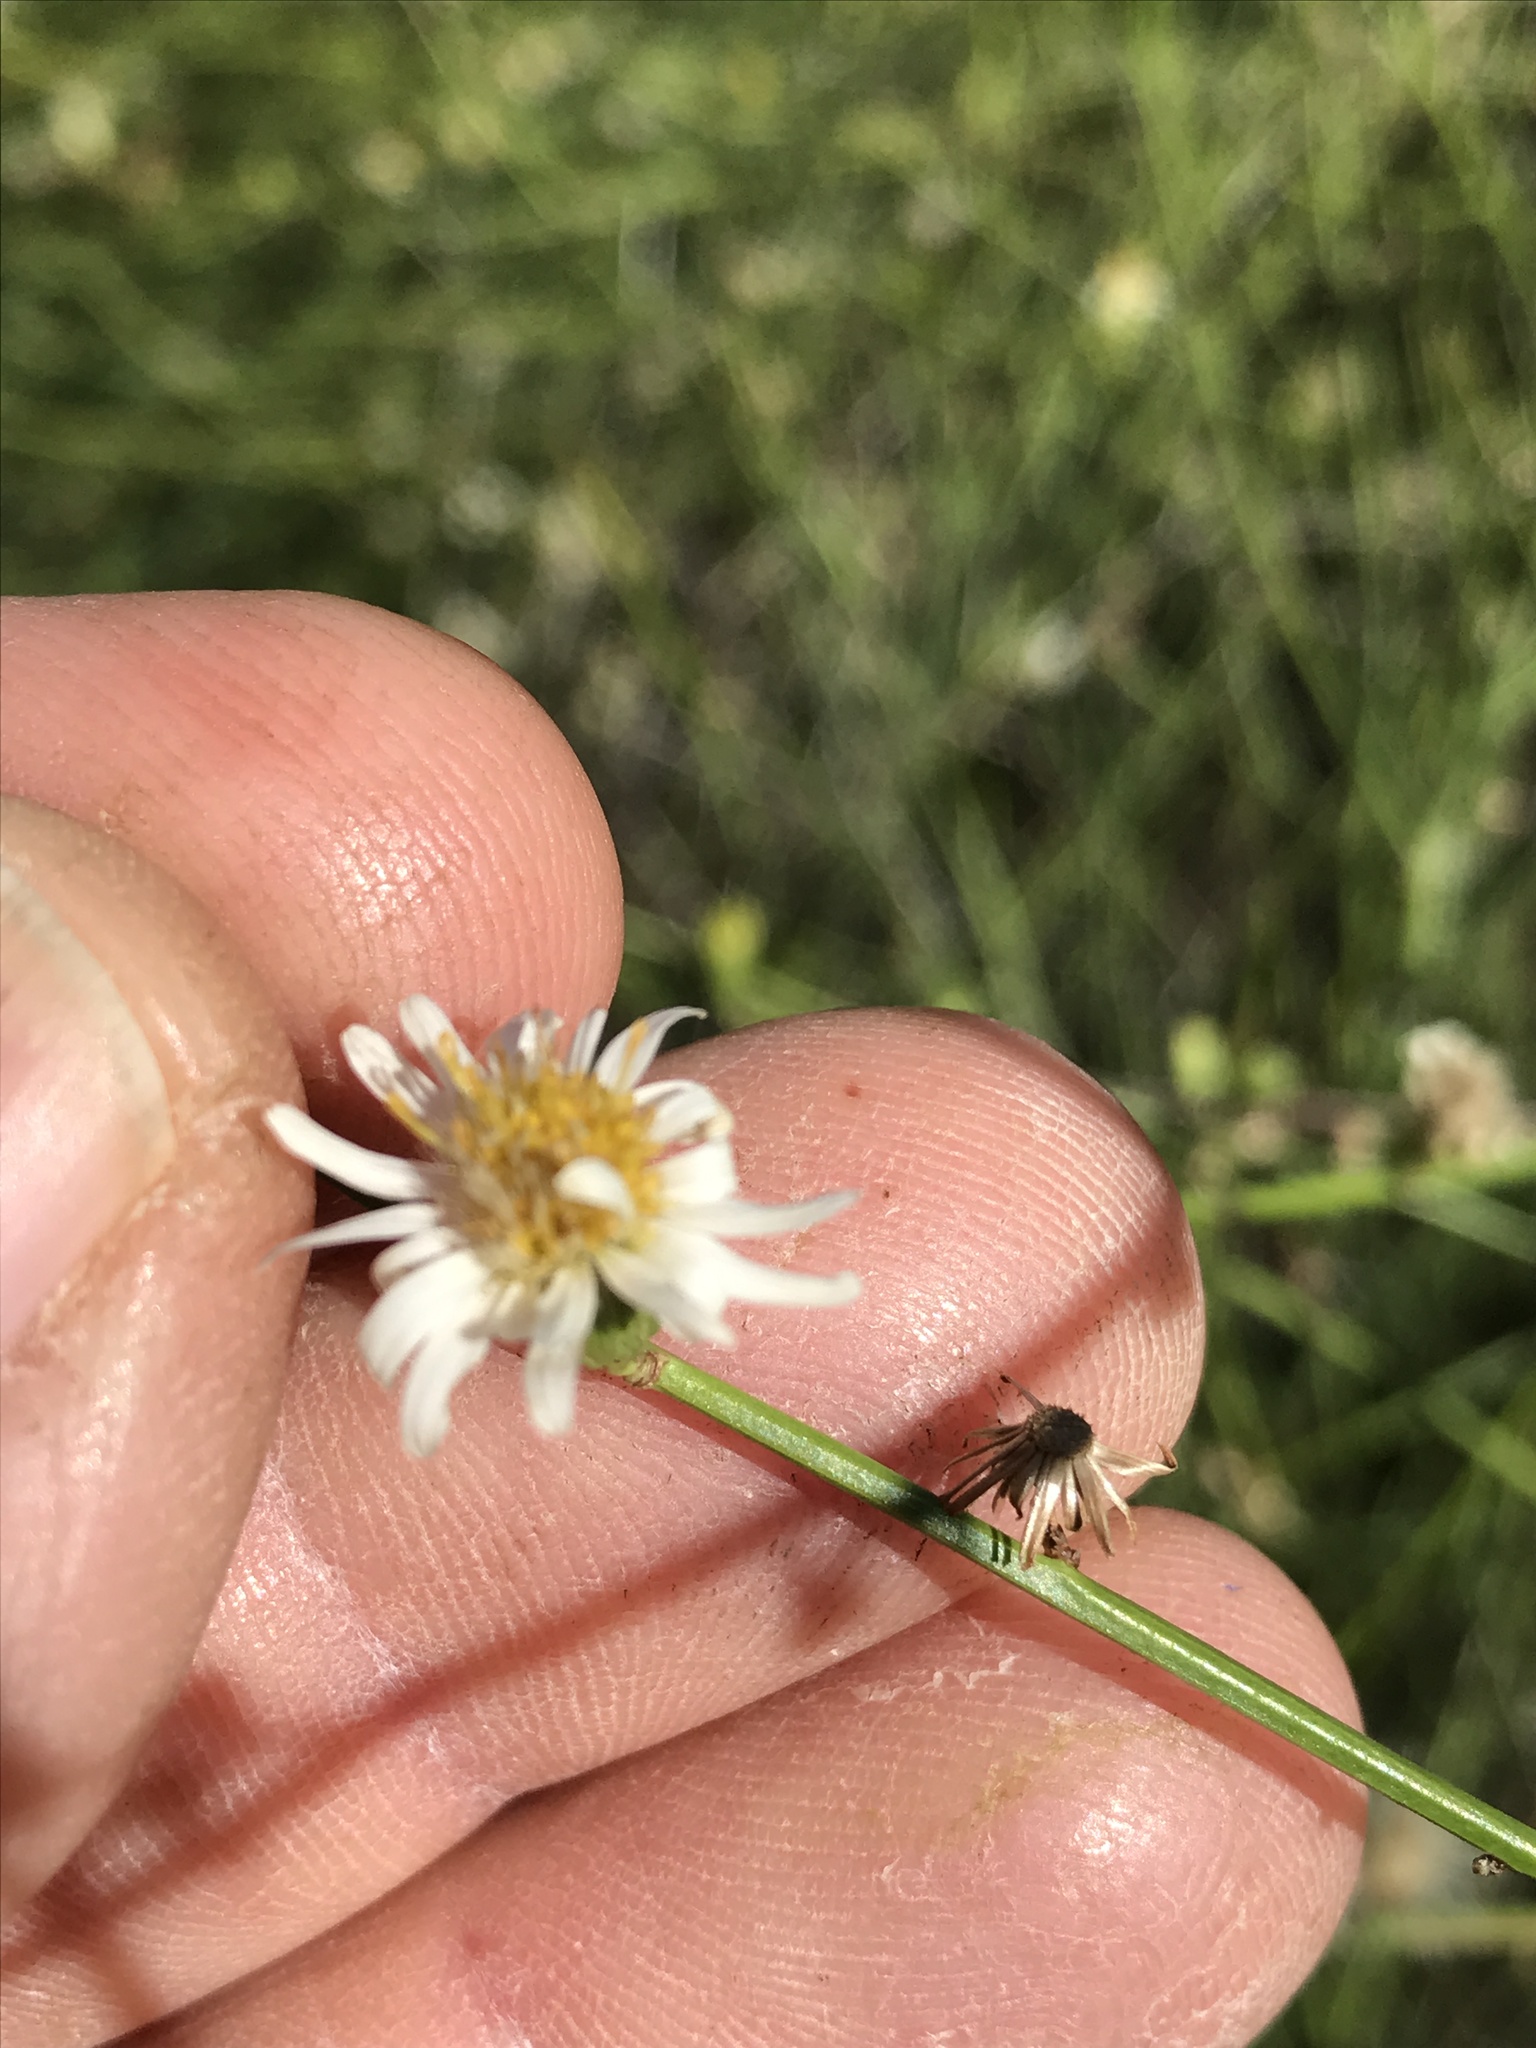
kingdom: Plantae
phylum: Tracheophyta
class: Magnoliopsida
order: Asterales
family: Asteraceae
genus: Chloracantha
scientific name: Chloracantha spinosa
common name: Mexican devilweed
